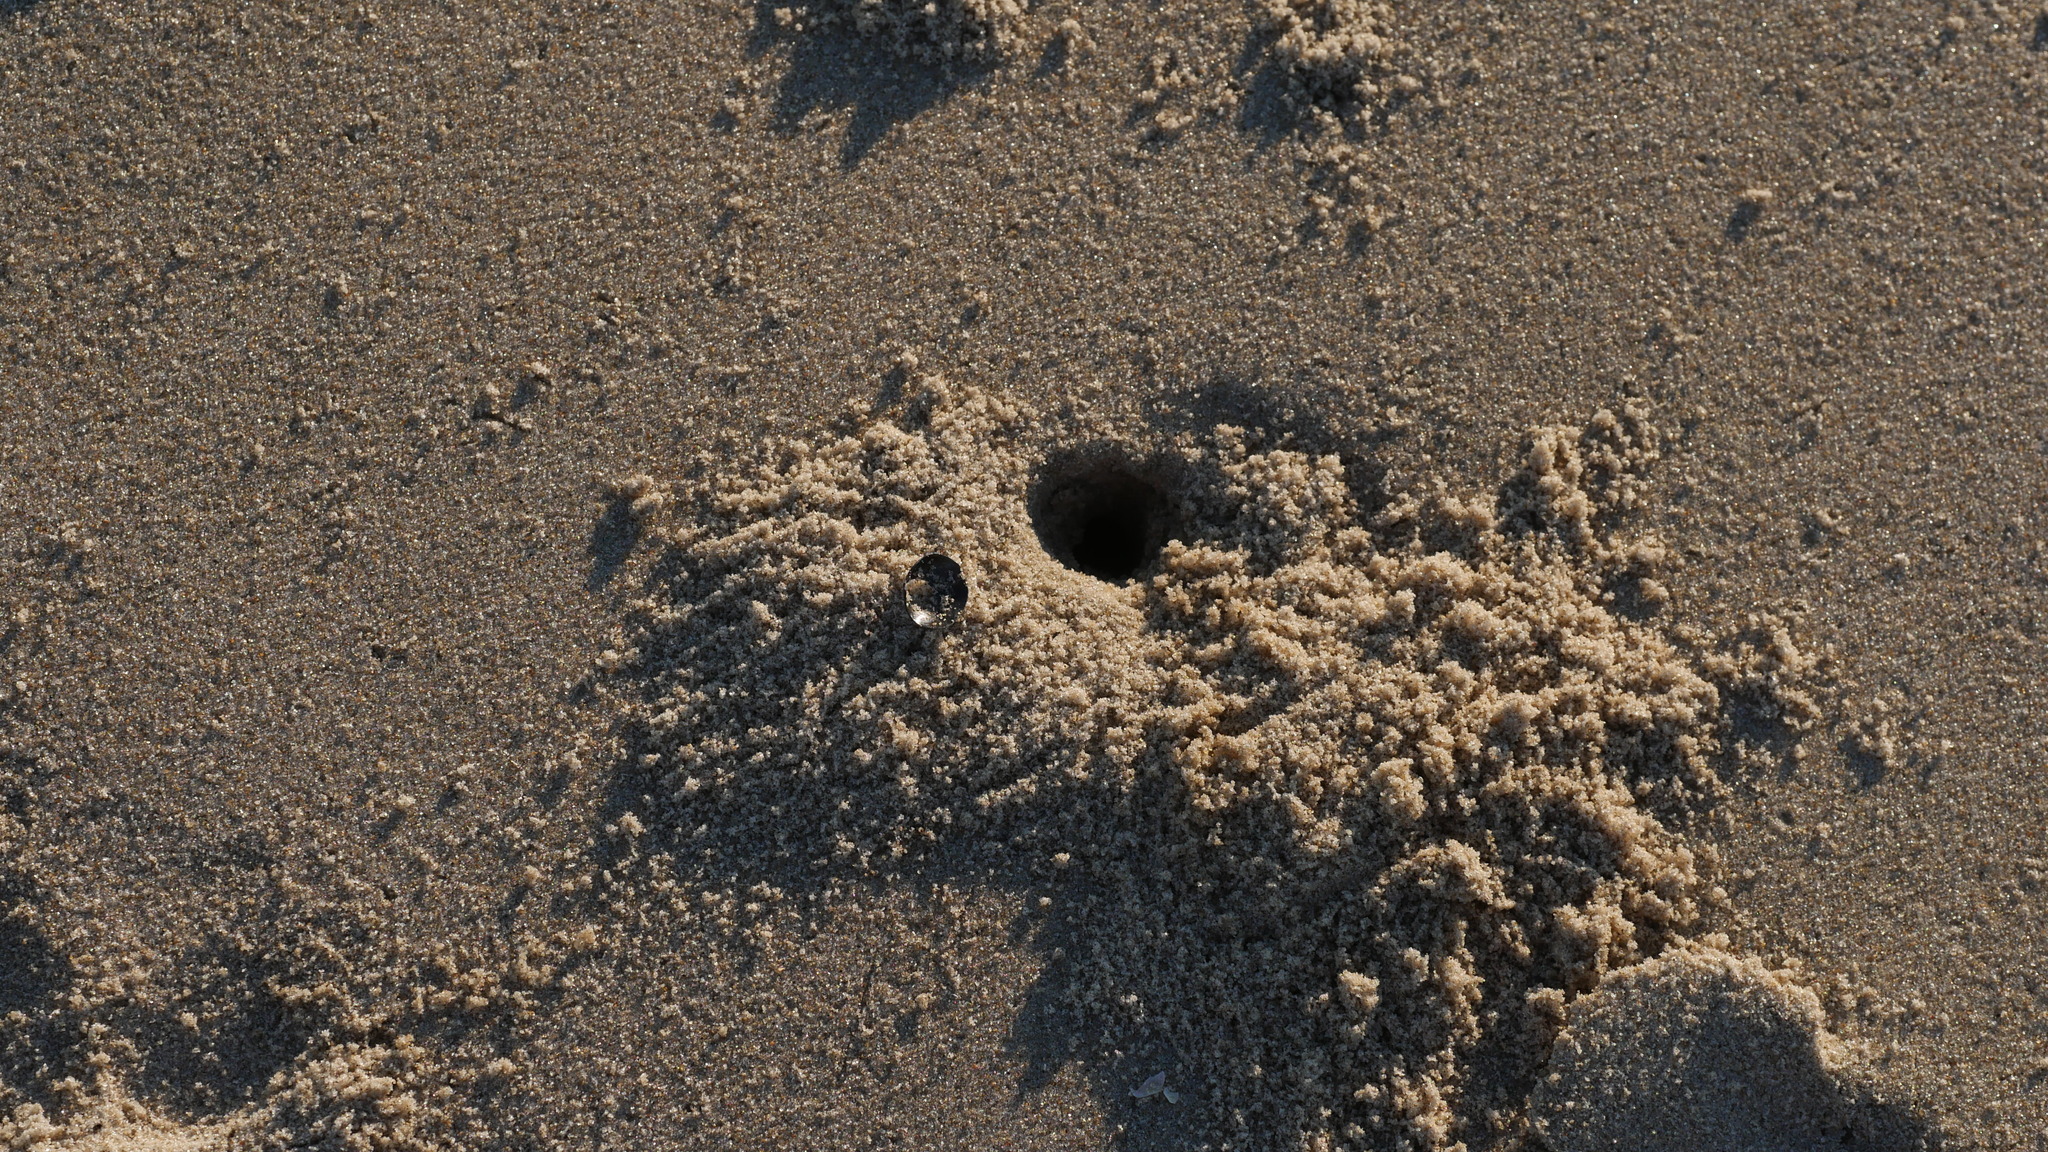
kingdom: Animalia
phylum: Arthropoda
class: Malacostraca
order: Decapoda
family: Ocypodidae
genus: Ocypode
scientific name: Ocypode quadrata
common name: Ghost crab
